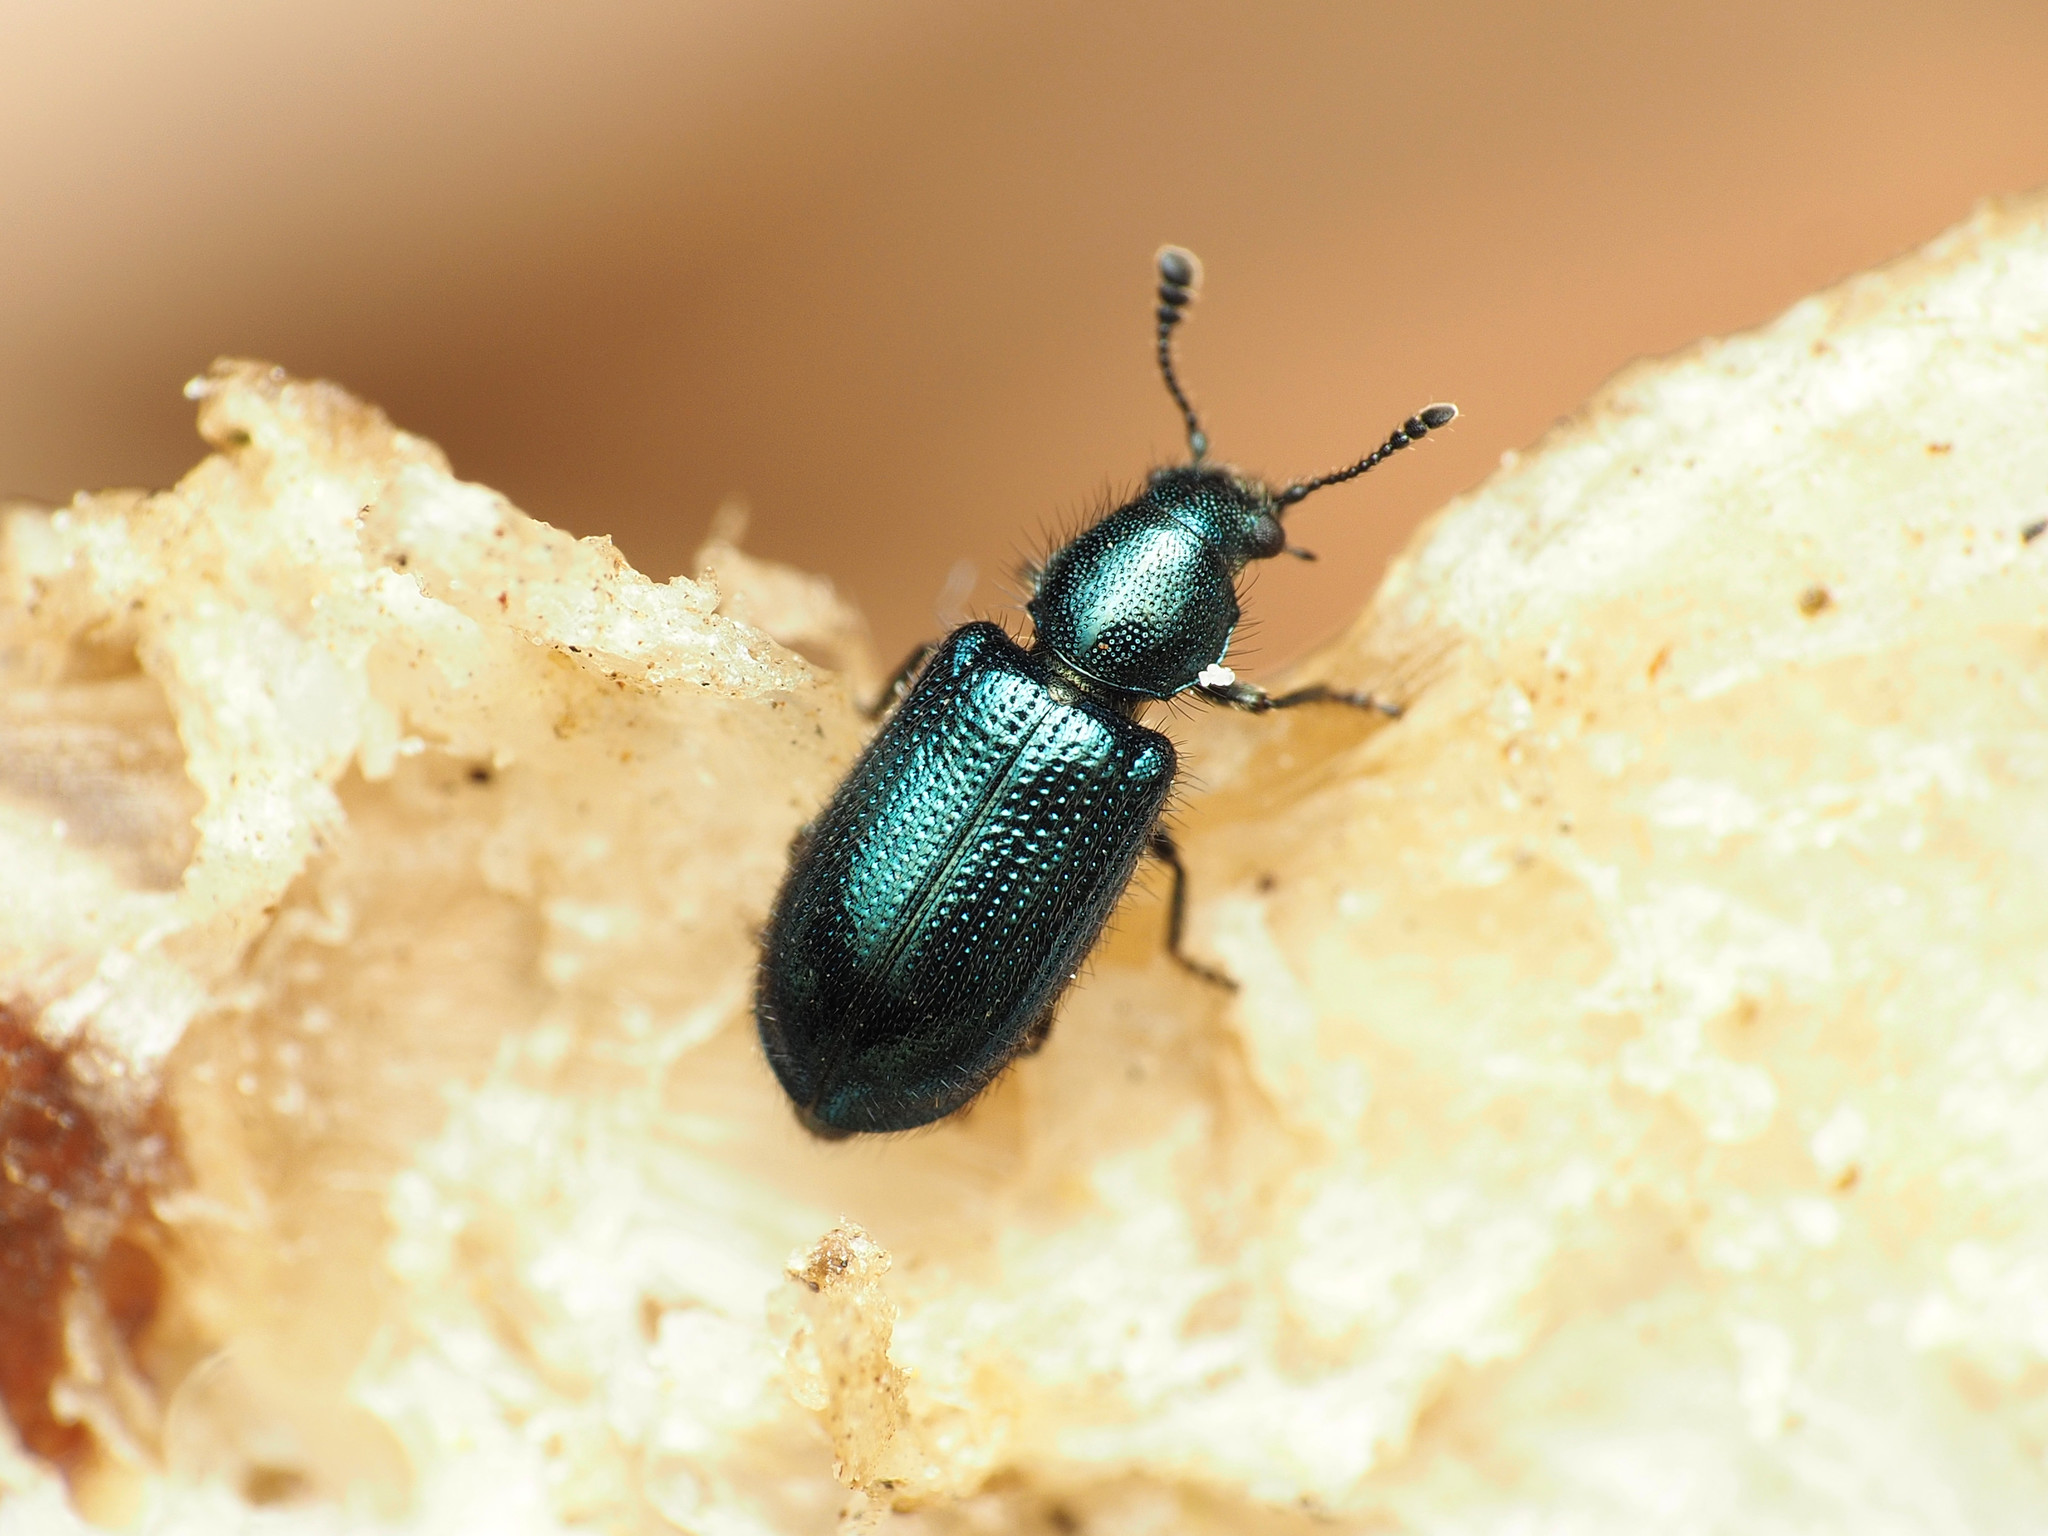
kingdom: Animalia
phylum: Arthropoda
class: Insecta
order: Coleoptera
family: Cleridae
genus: Necrobia
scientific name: Necrobia violacea
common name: Violet checkered beetle
